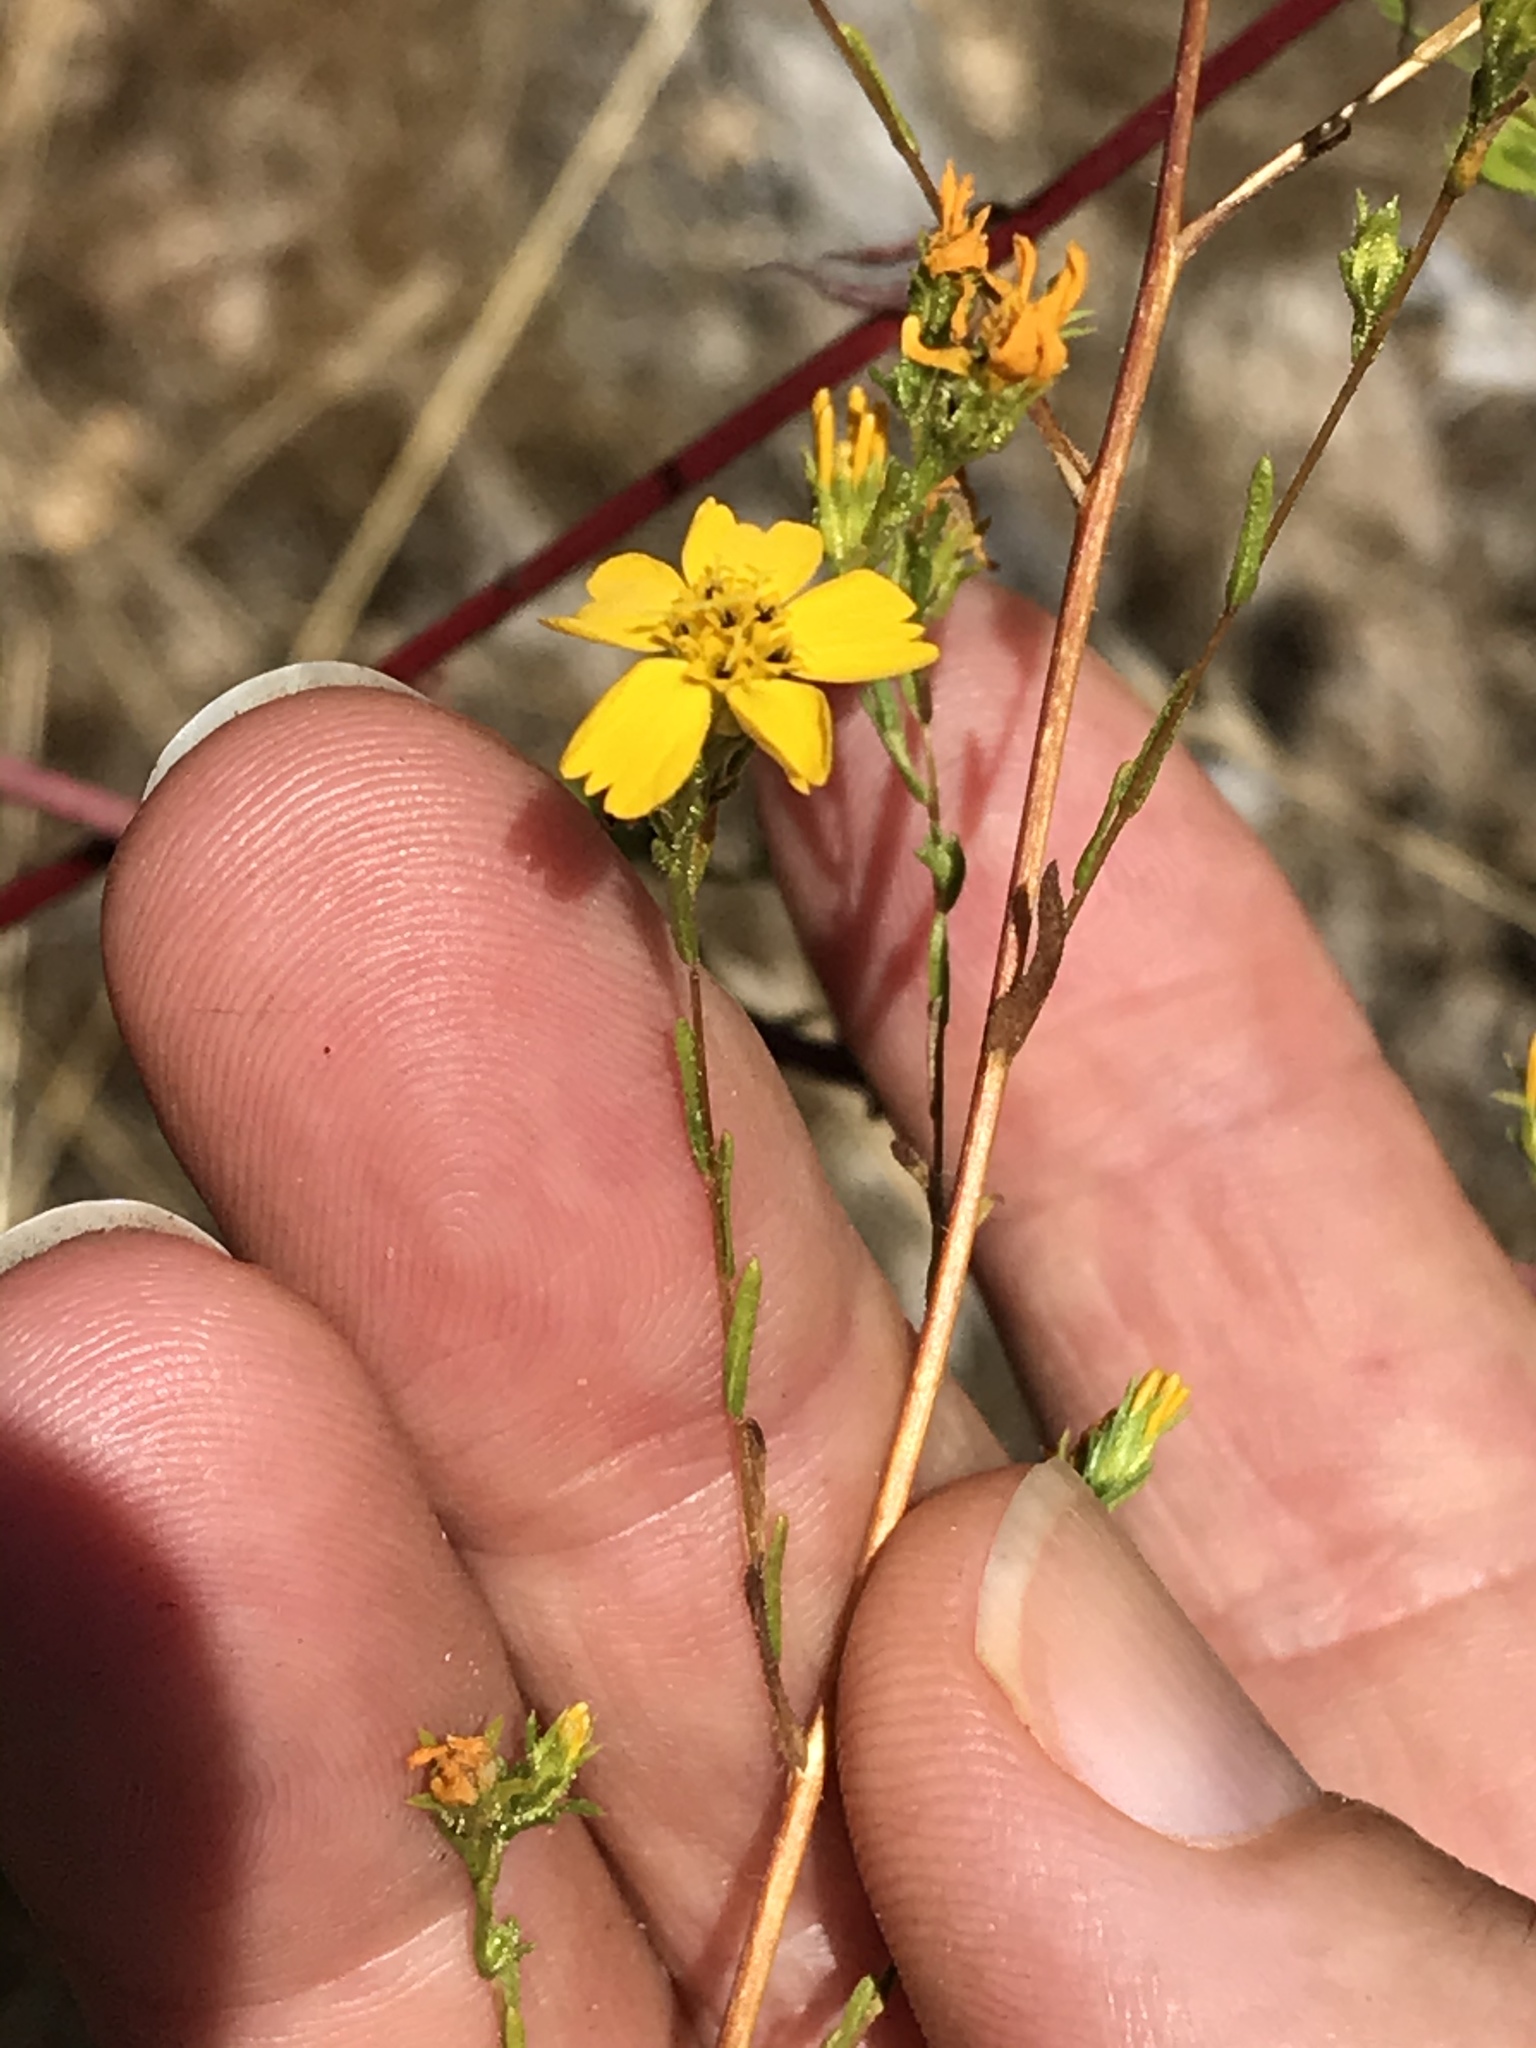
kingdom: Plantae
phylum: Tracheophyta
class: Magnoliopsida
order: Asterales
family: Asteraceae
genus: Deinandra
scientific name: Deinandra fasciculata
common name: Clustered tarweed
